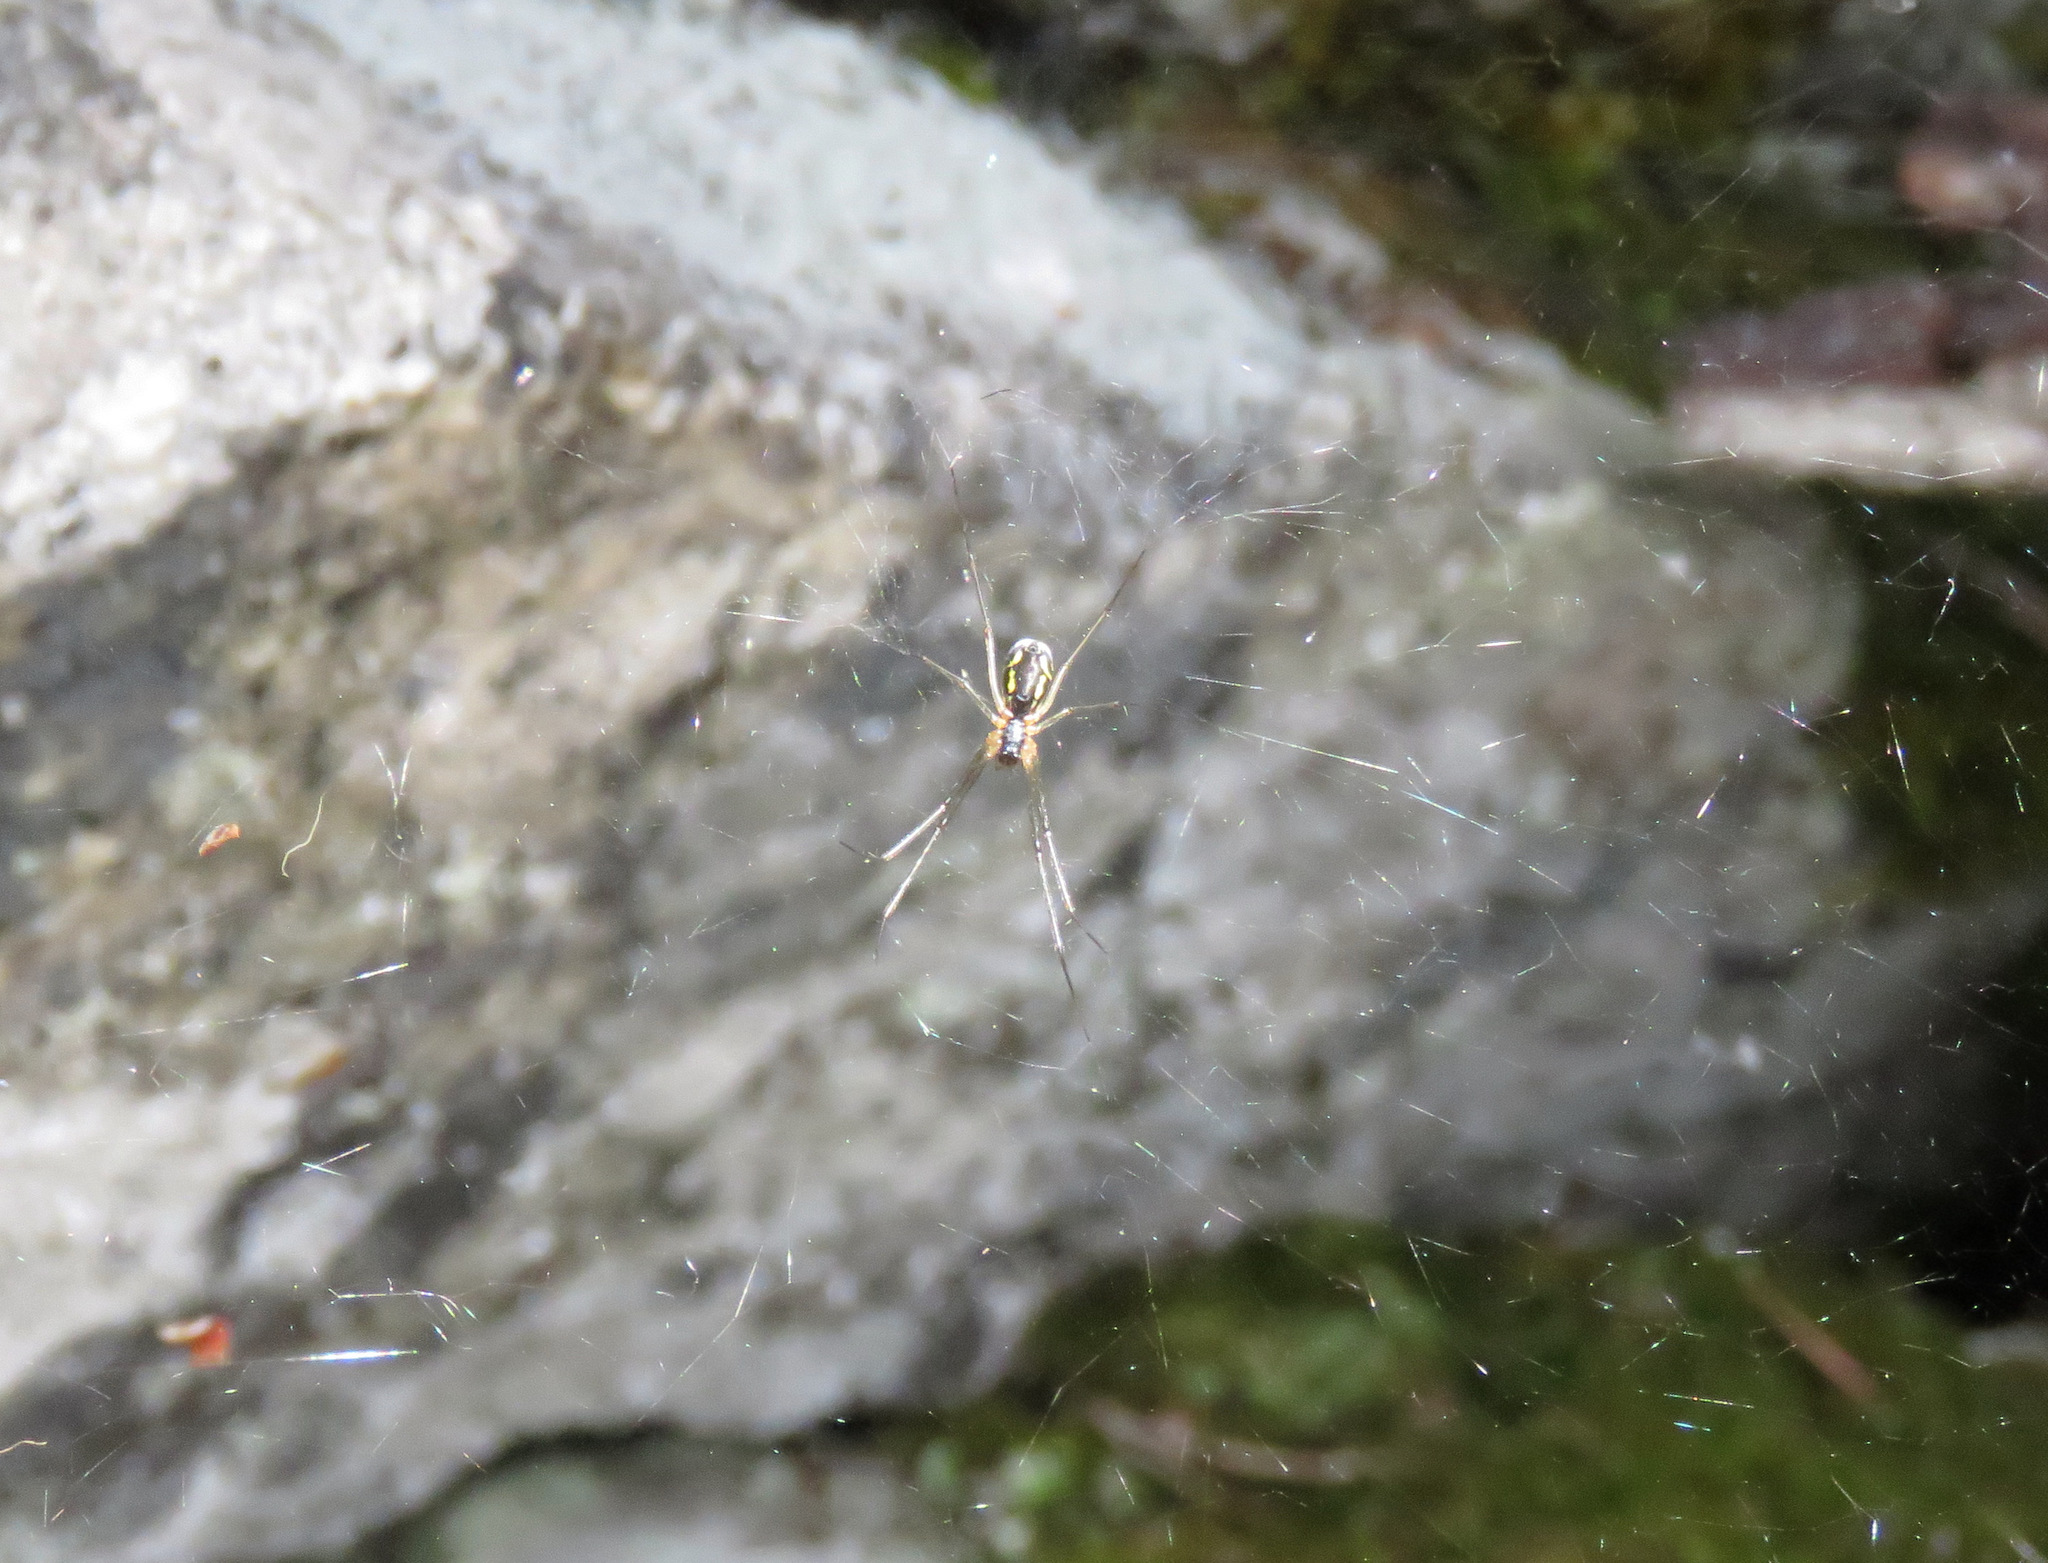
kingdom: Animalia
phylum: Arthropoda
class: Arachnida
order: Araneae
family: Linyphiidae
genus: Neriene
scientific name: Neriene radiata
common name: Filmy dome spider
